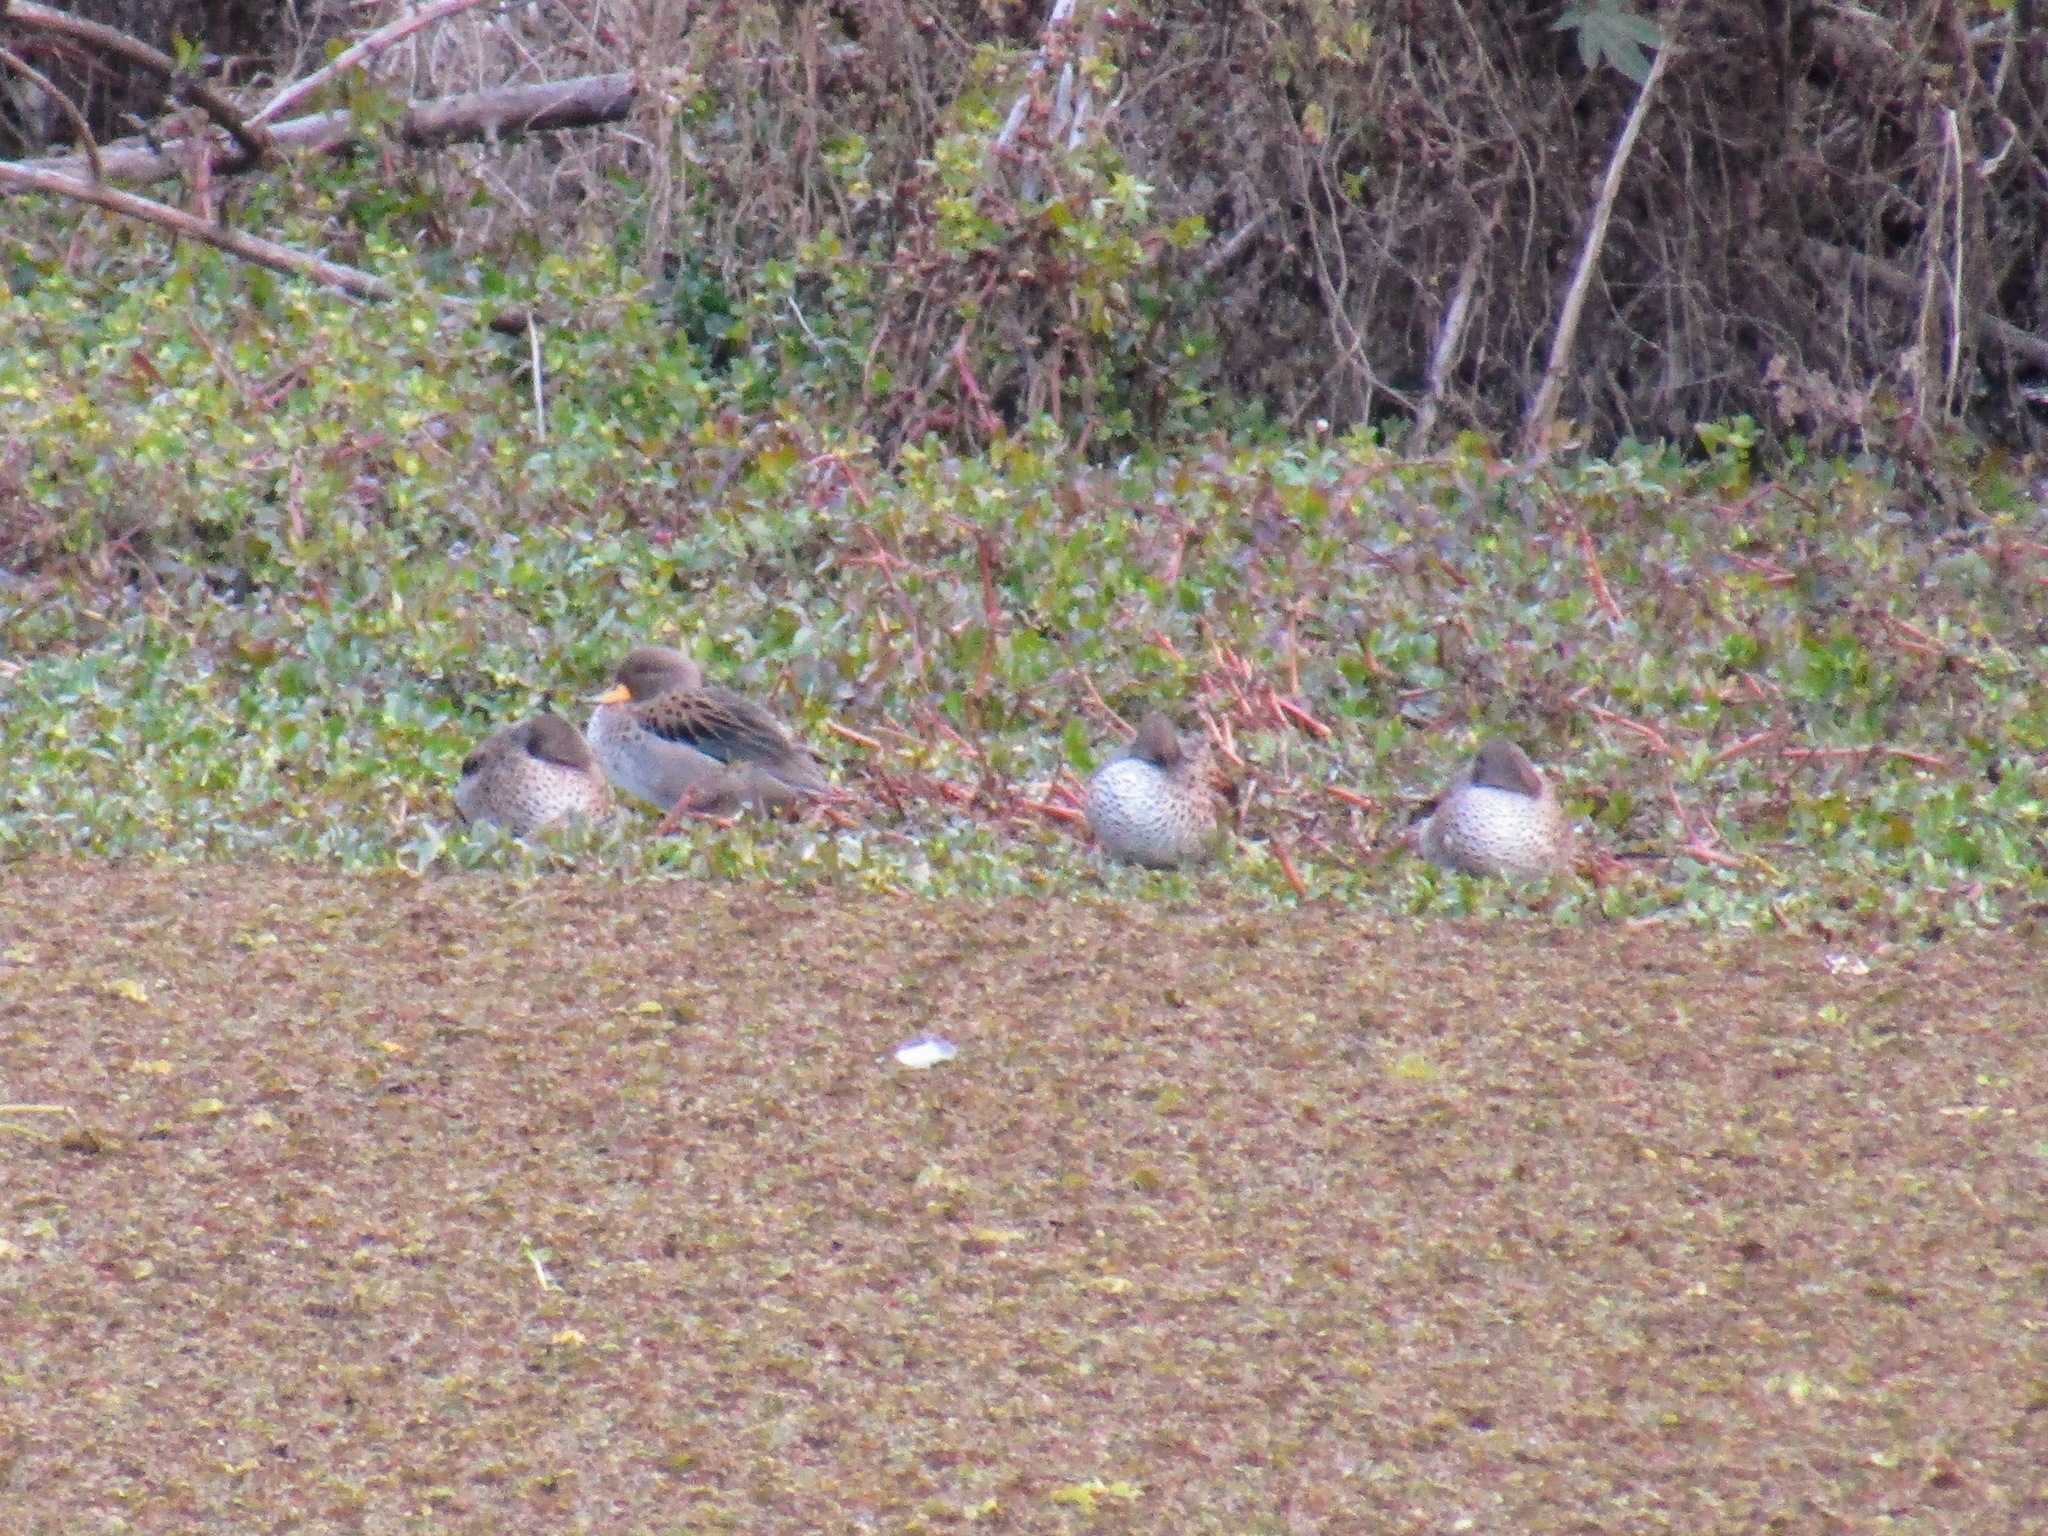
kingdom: Animalia
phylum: Chordata
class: Aves
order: Anseriformes
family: Anatidae
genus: Anas
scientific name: Anas flavirostris
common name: Yellow-billed teal
